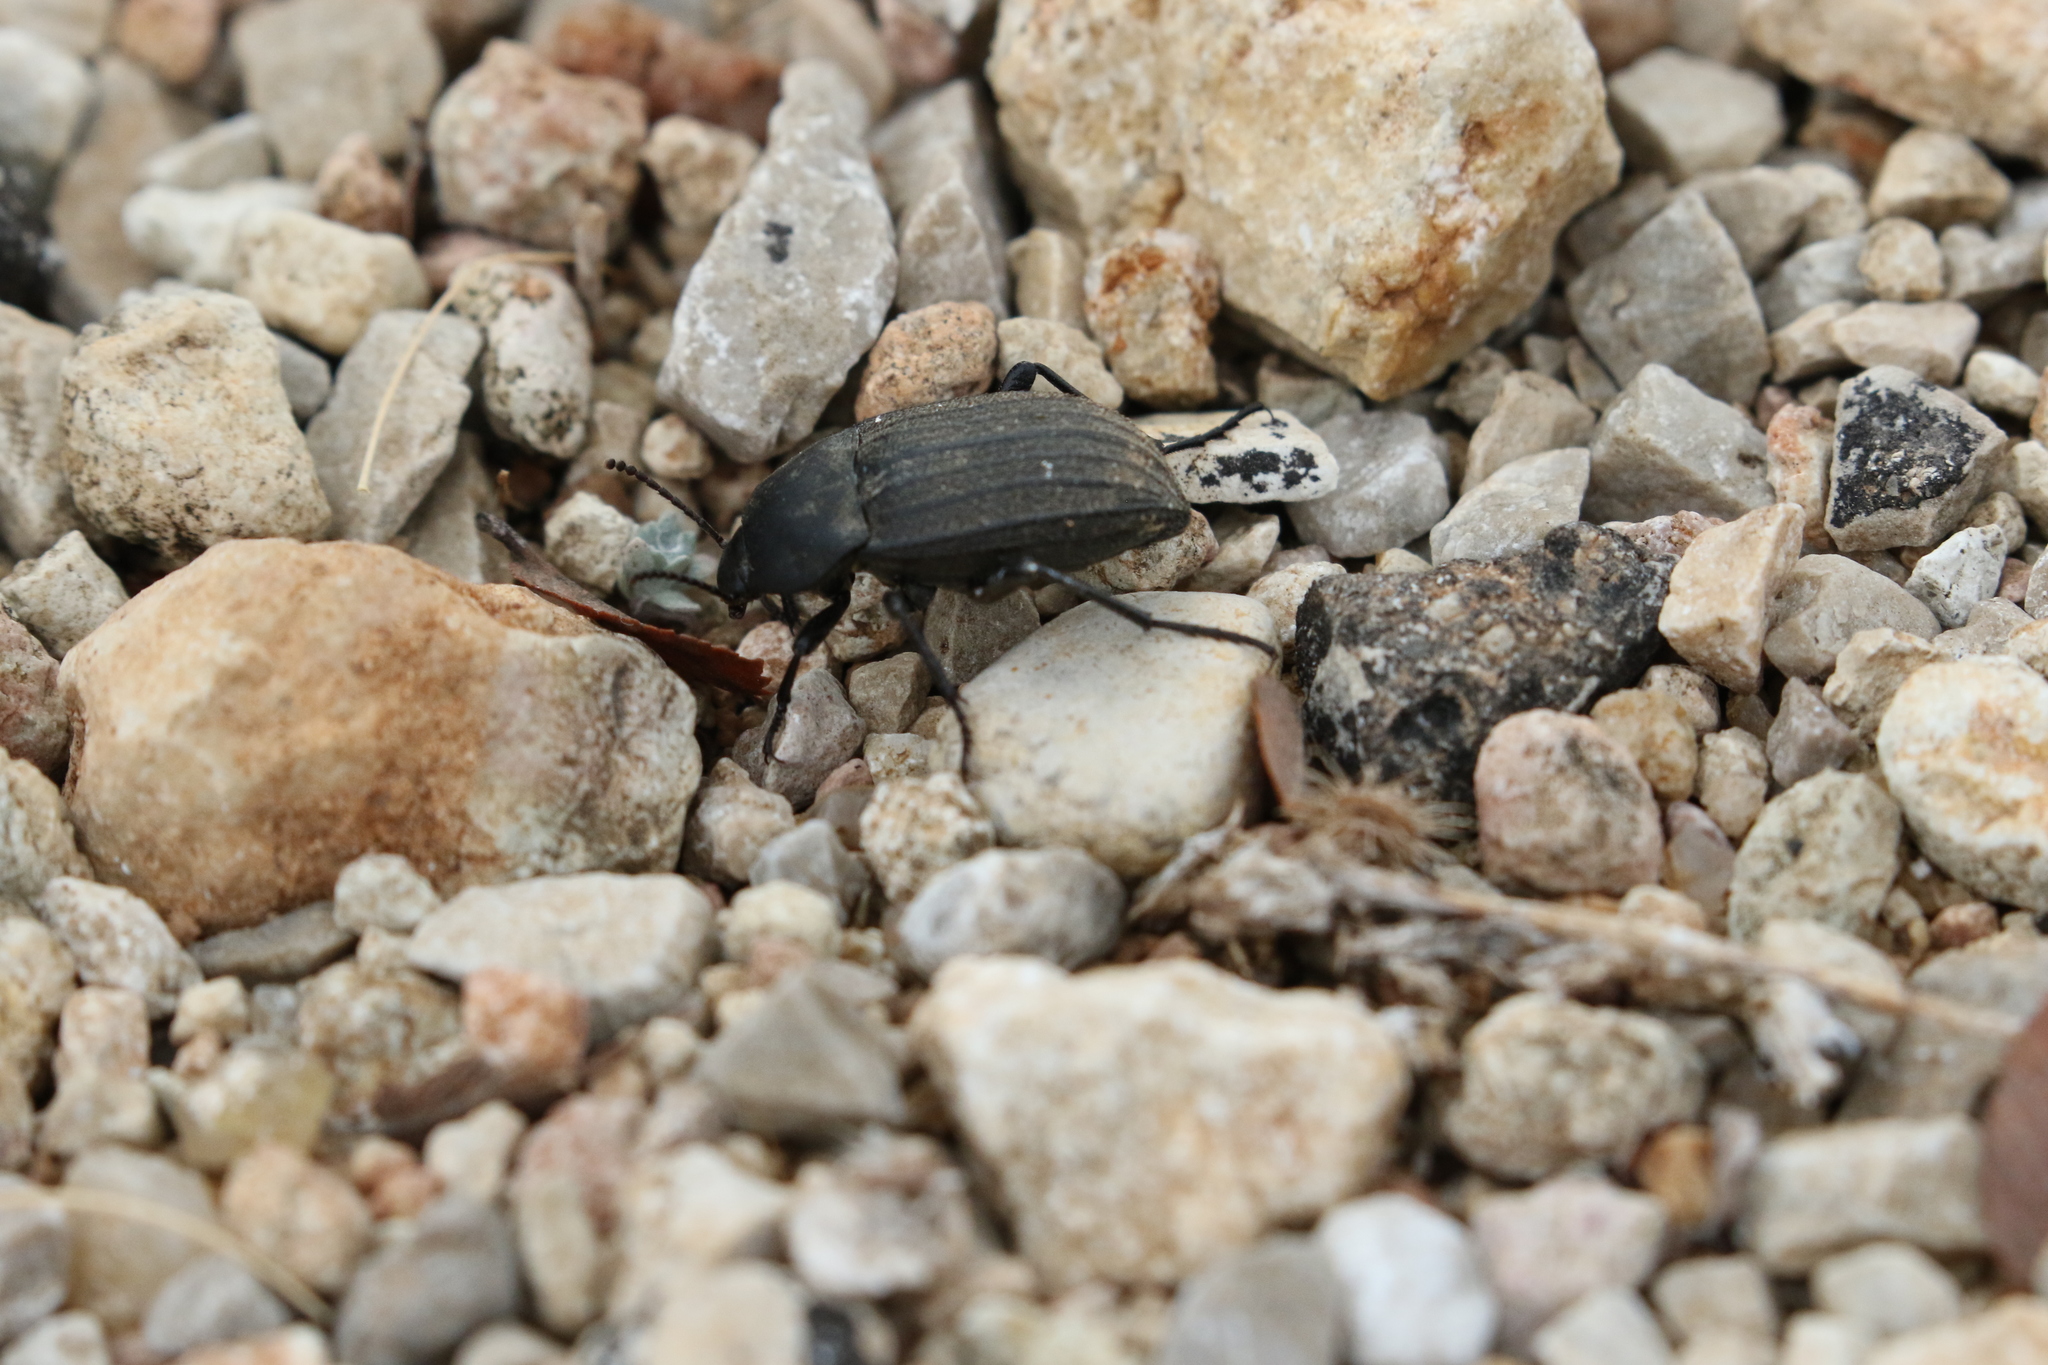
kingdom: Animalia
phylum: Arthropoda
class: Insecta
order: Coleoptera
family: Tenebrionidae
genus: Eleodes
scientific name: Eleodes tricostata
